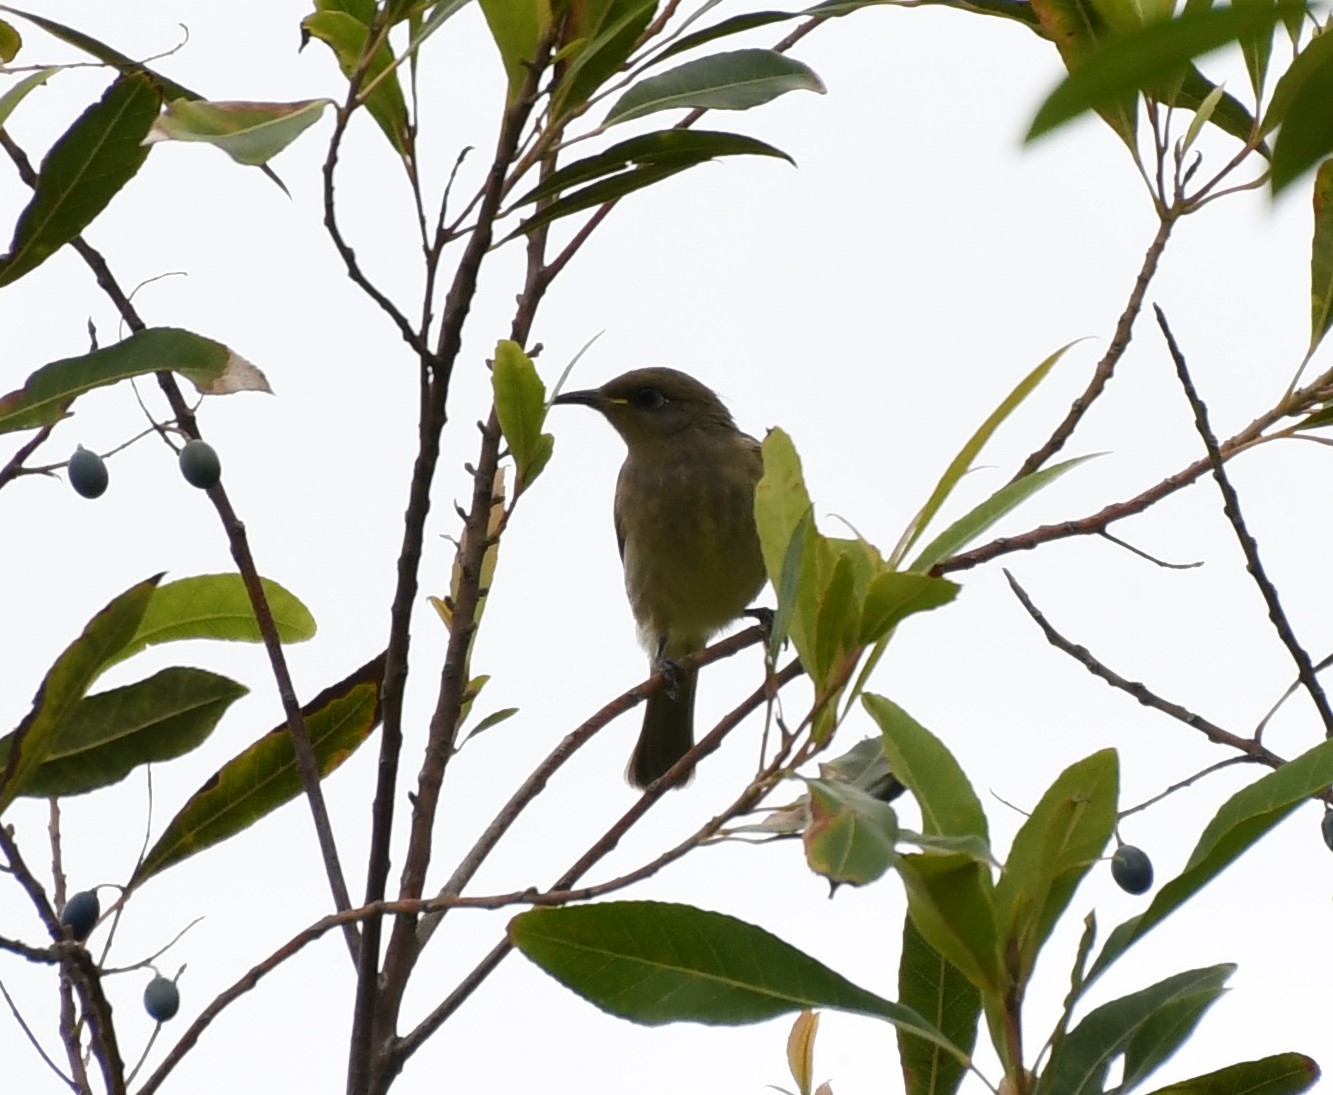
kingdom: Animalia
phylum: Chordata
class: Aves
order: Passeriformes
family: Meliphagidae
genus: Lichmera
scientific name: Lichmera indistincta
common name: Brown honeyeater
